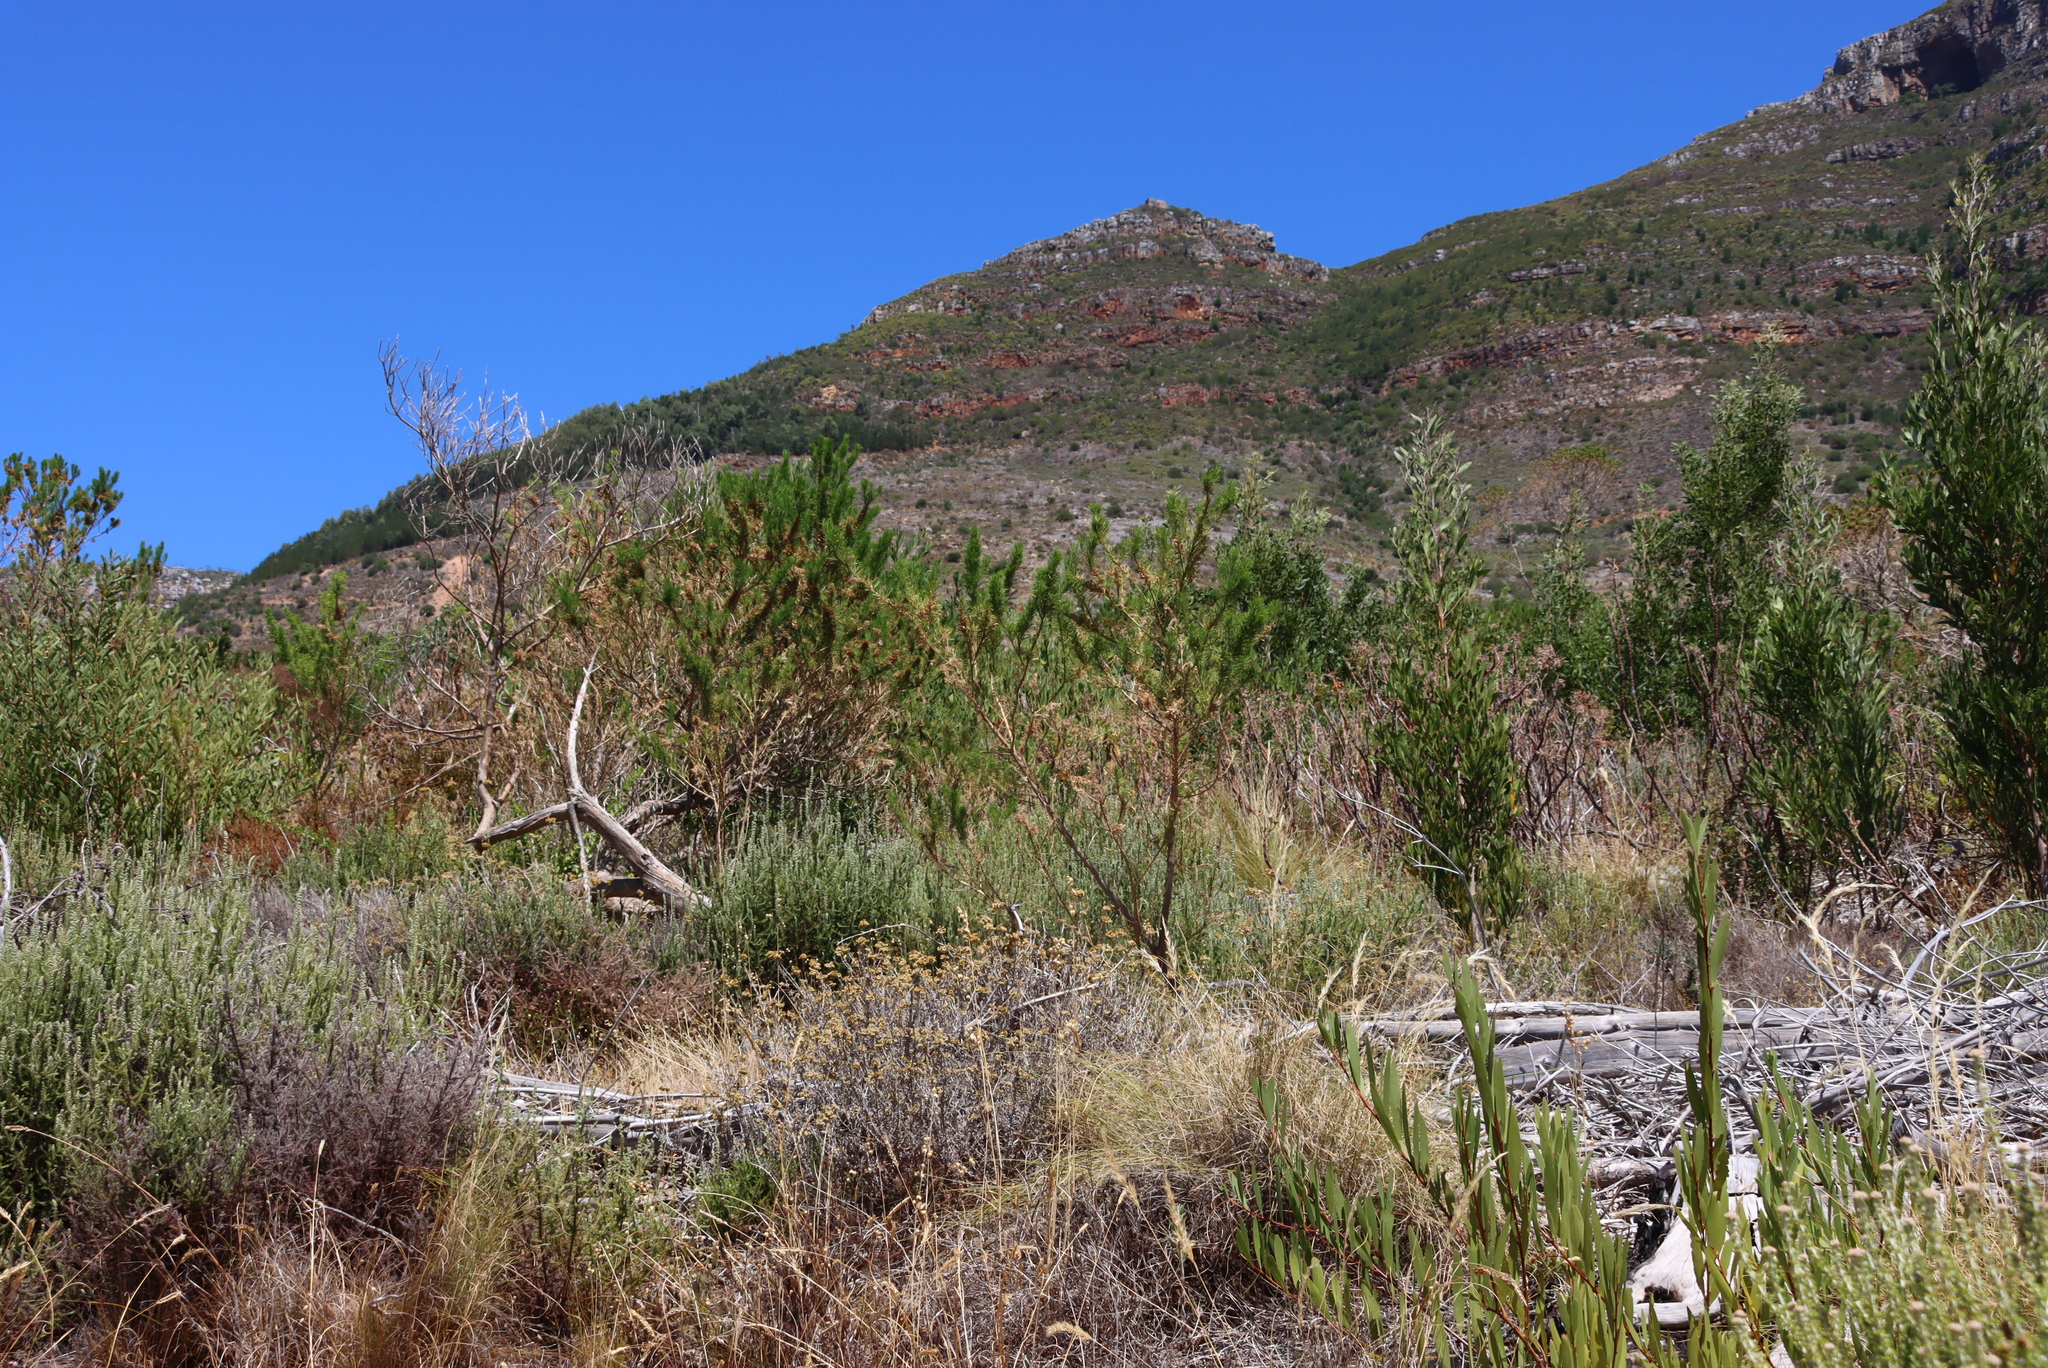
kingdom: Plantae
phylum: Tracheophyta
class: Magnoliopsida
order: Fabales
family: Fabaceae
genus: Psoralea
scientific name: Psoralea pinnata
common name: African scurfpea
